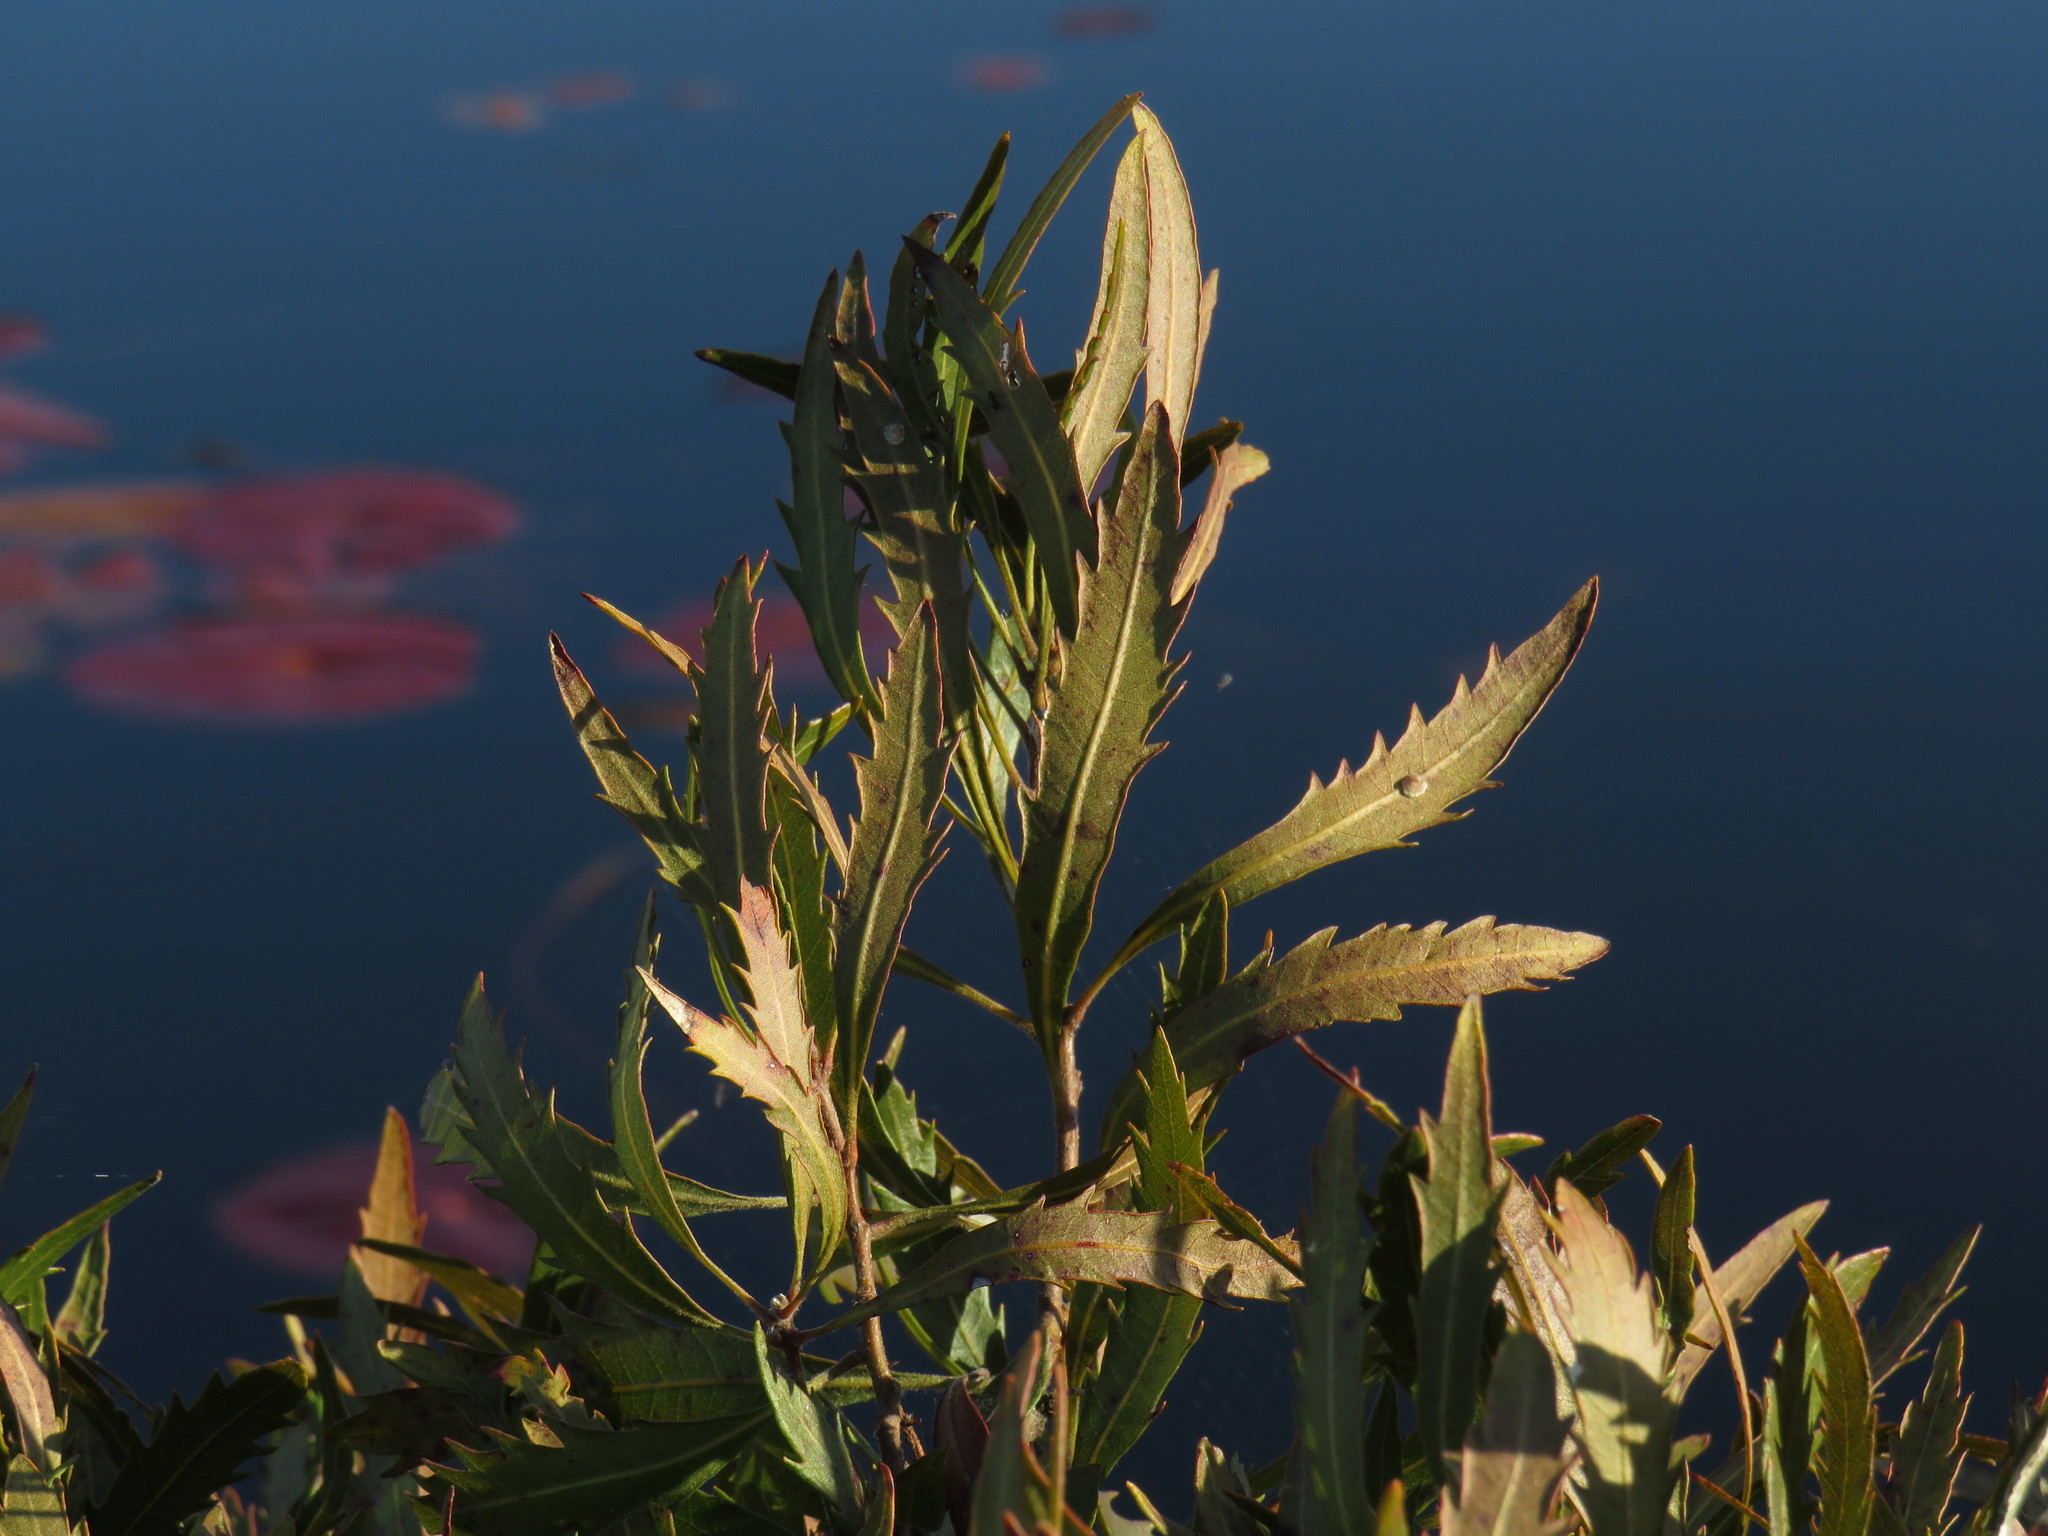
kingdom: Plantae
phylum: Tracheophyta
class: Magnoliopsida
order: Fagales
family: Myricaceae
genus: Morella
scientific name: Morella serrata
